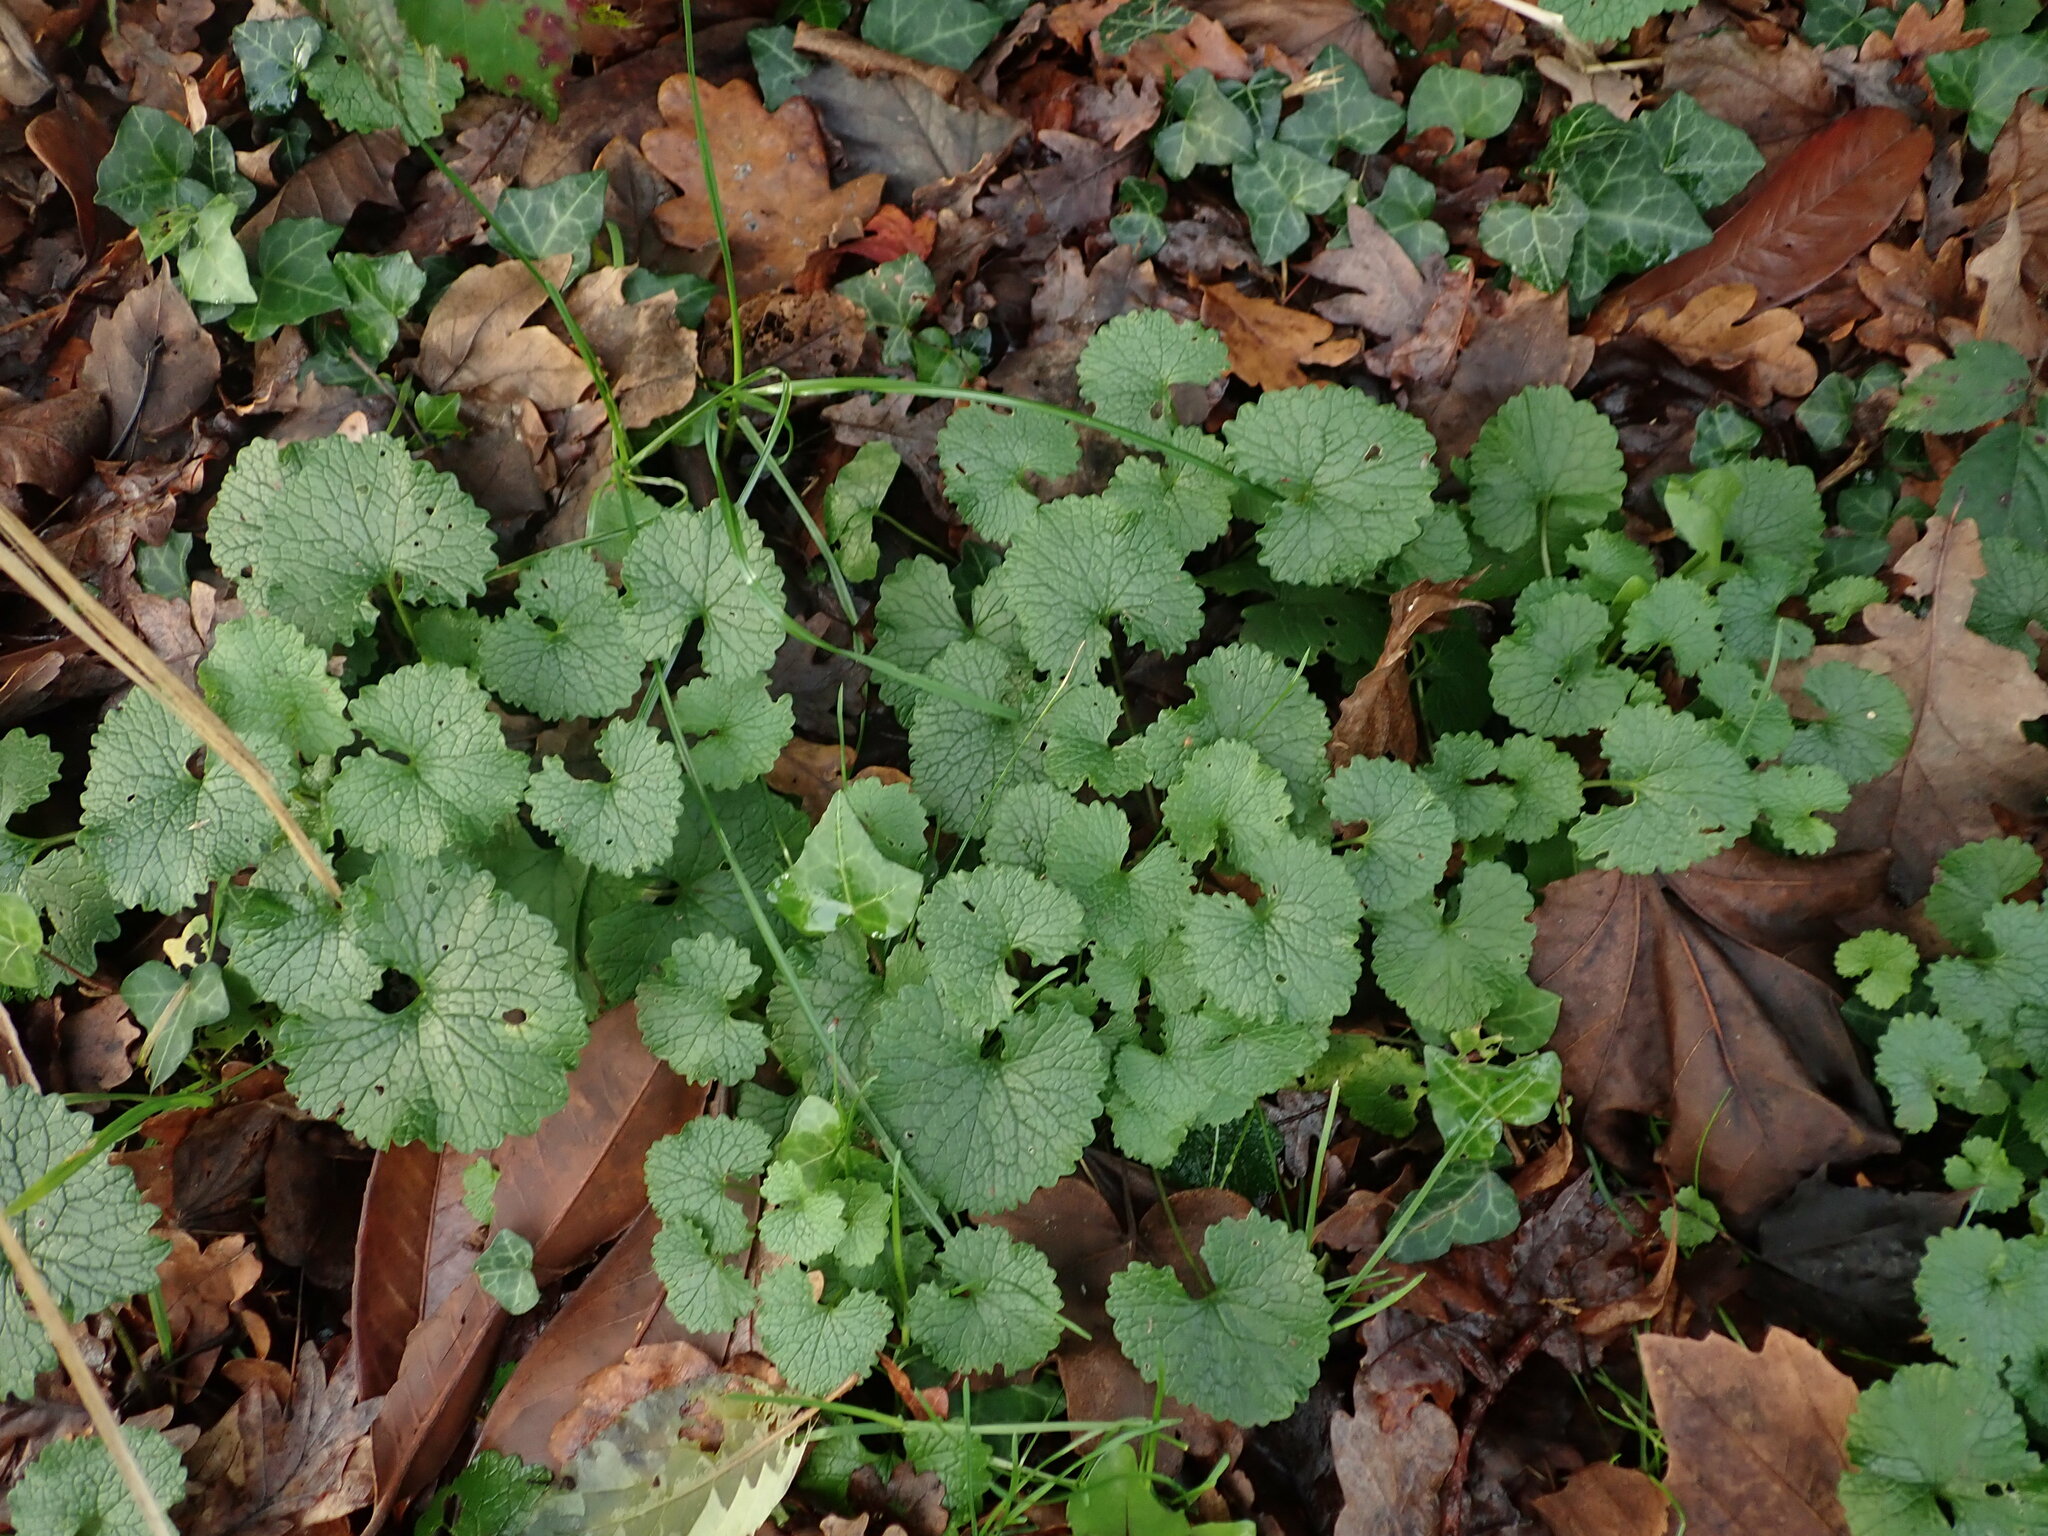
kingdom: Plantae
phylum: Tracheophyta
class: Magnoliopsida
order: Brassicales
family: Brassicaceae
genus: Alliaria
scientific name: Alliaria petiolata
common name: Garlic mustard
